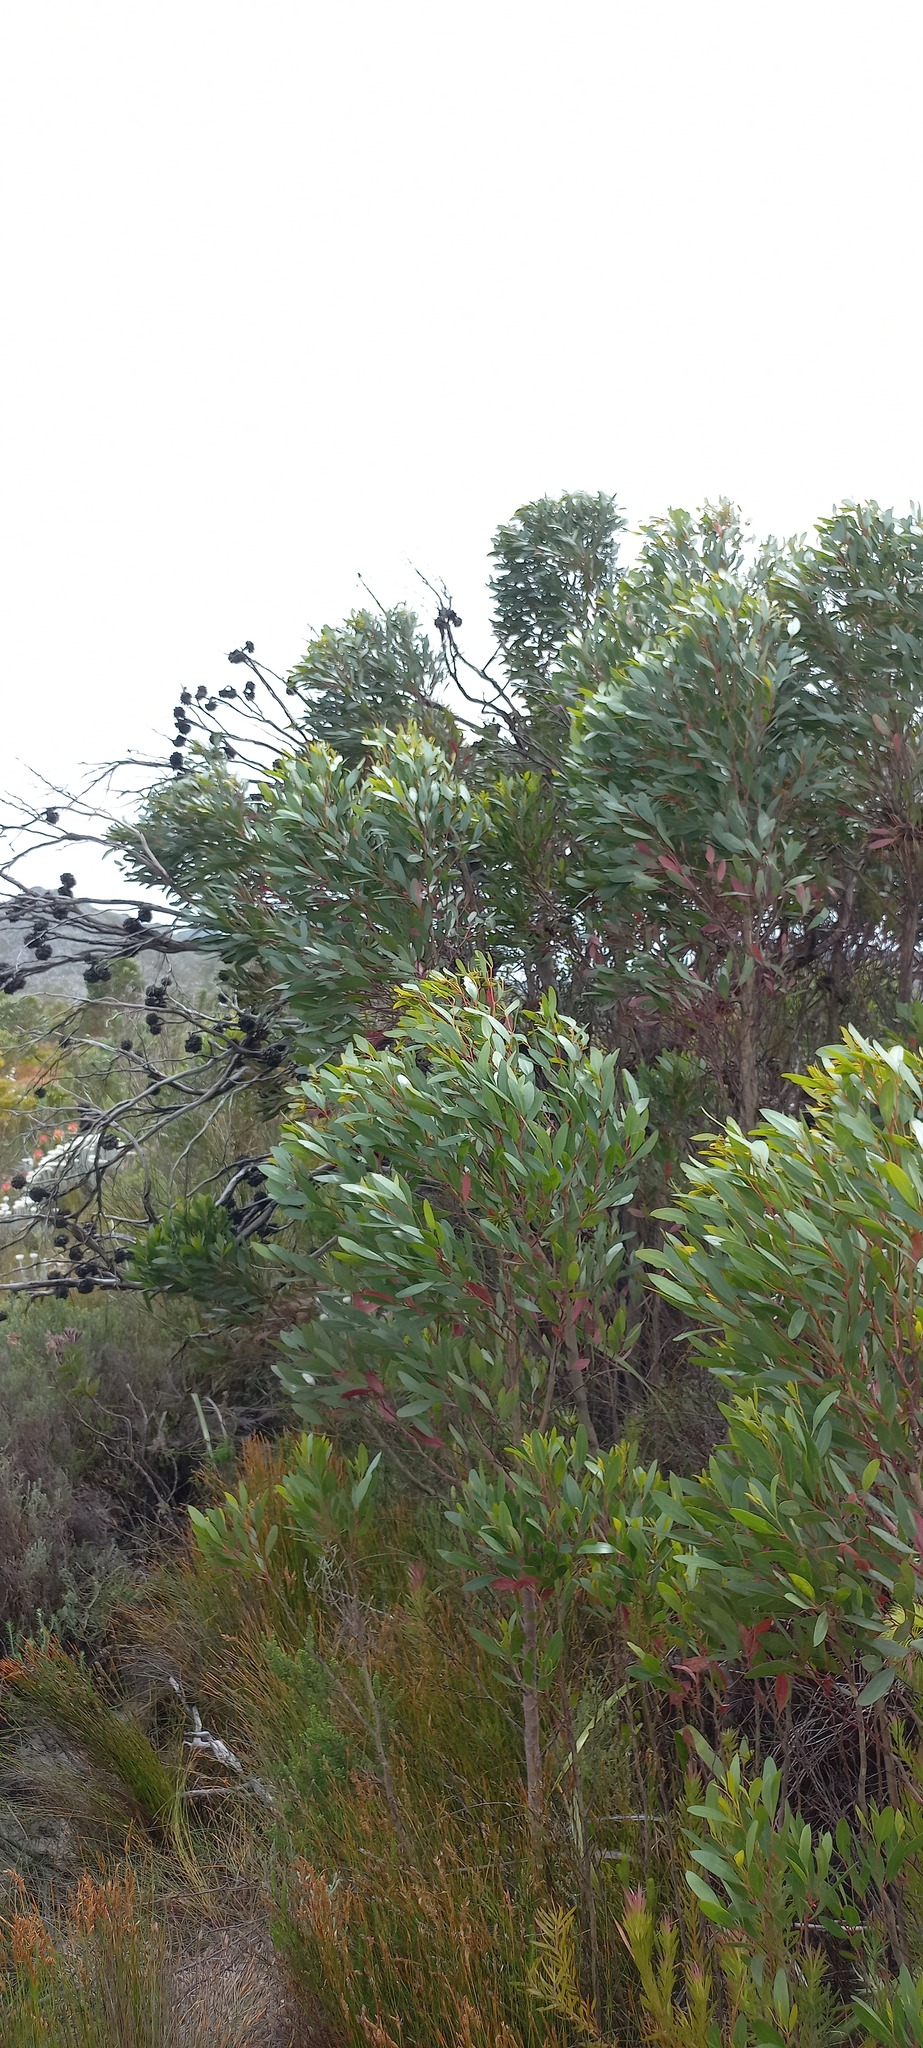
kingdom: Plantae
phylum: Tracheophyta
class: Magnoliopsida
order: Myrtales
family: Myrtaceae
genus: Eucalyptus
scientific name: Eucalyptus conferruminata
